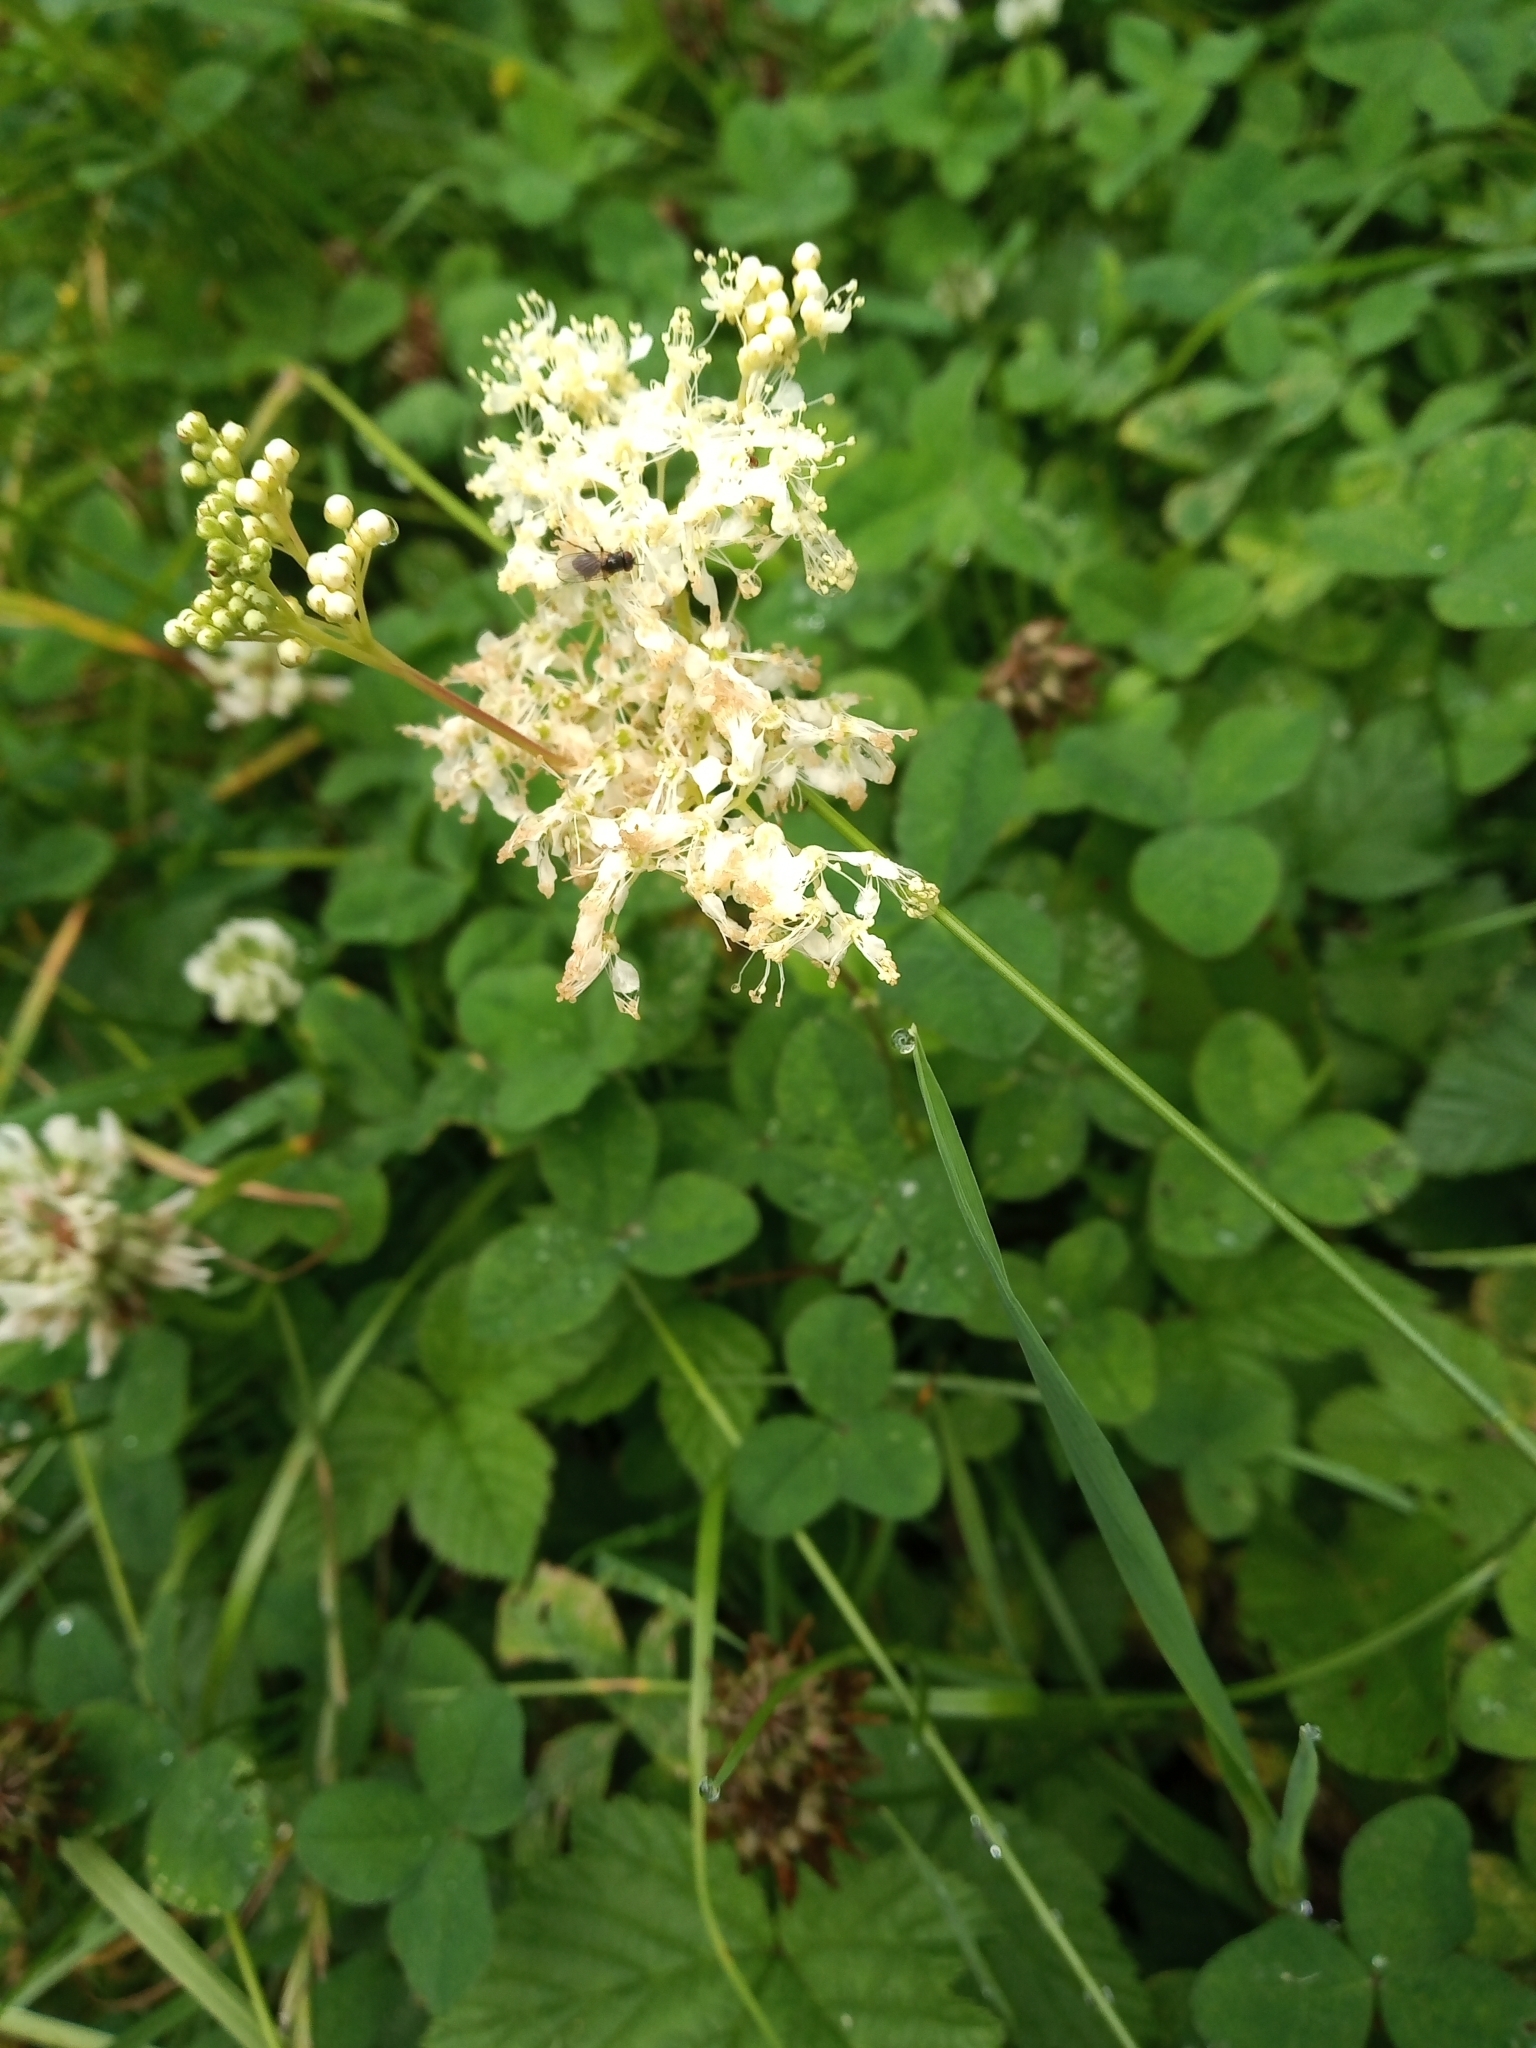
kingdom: Plantae
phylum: Tracheophyta
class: Magnoliopsida
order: Rosales
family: Rosaceae
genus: Filipendula
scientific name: Filipendula ulmaria
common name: Meadowsweet
